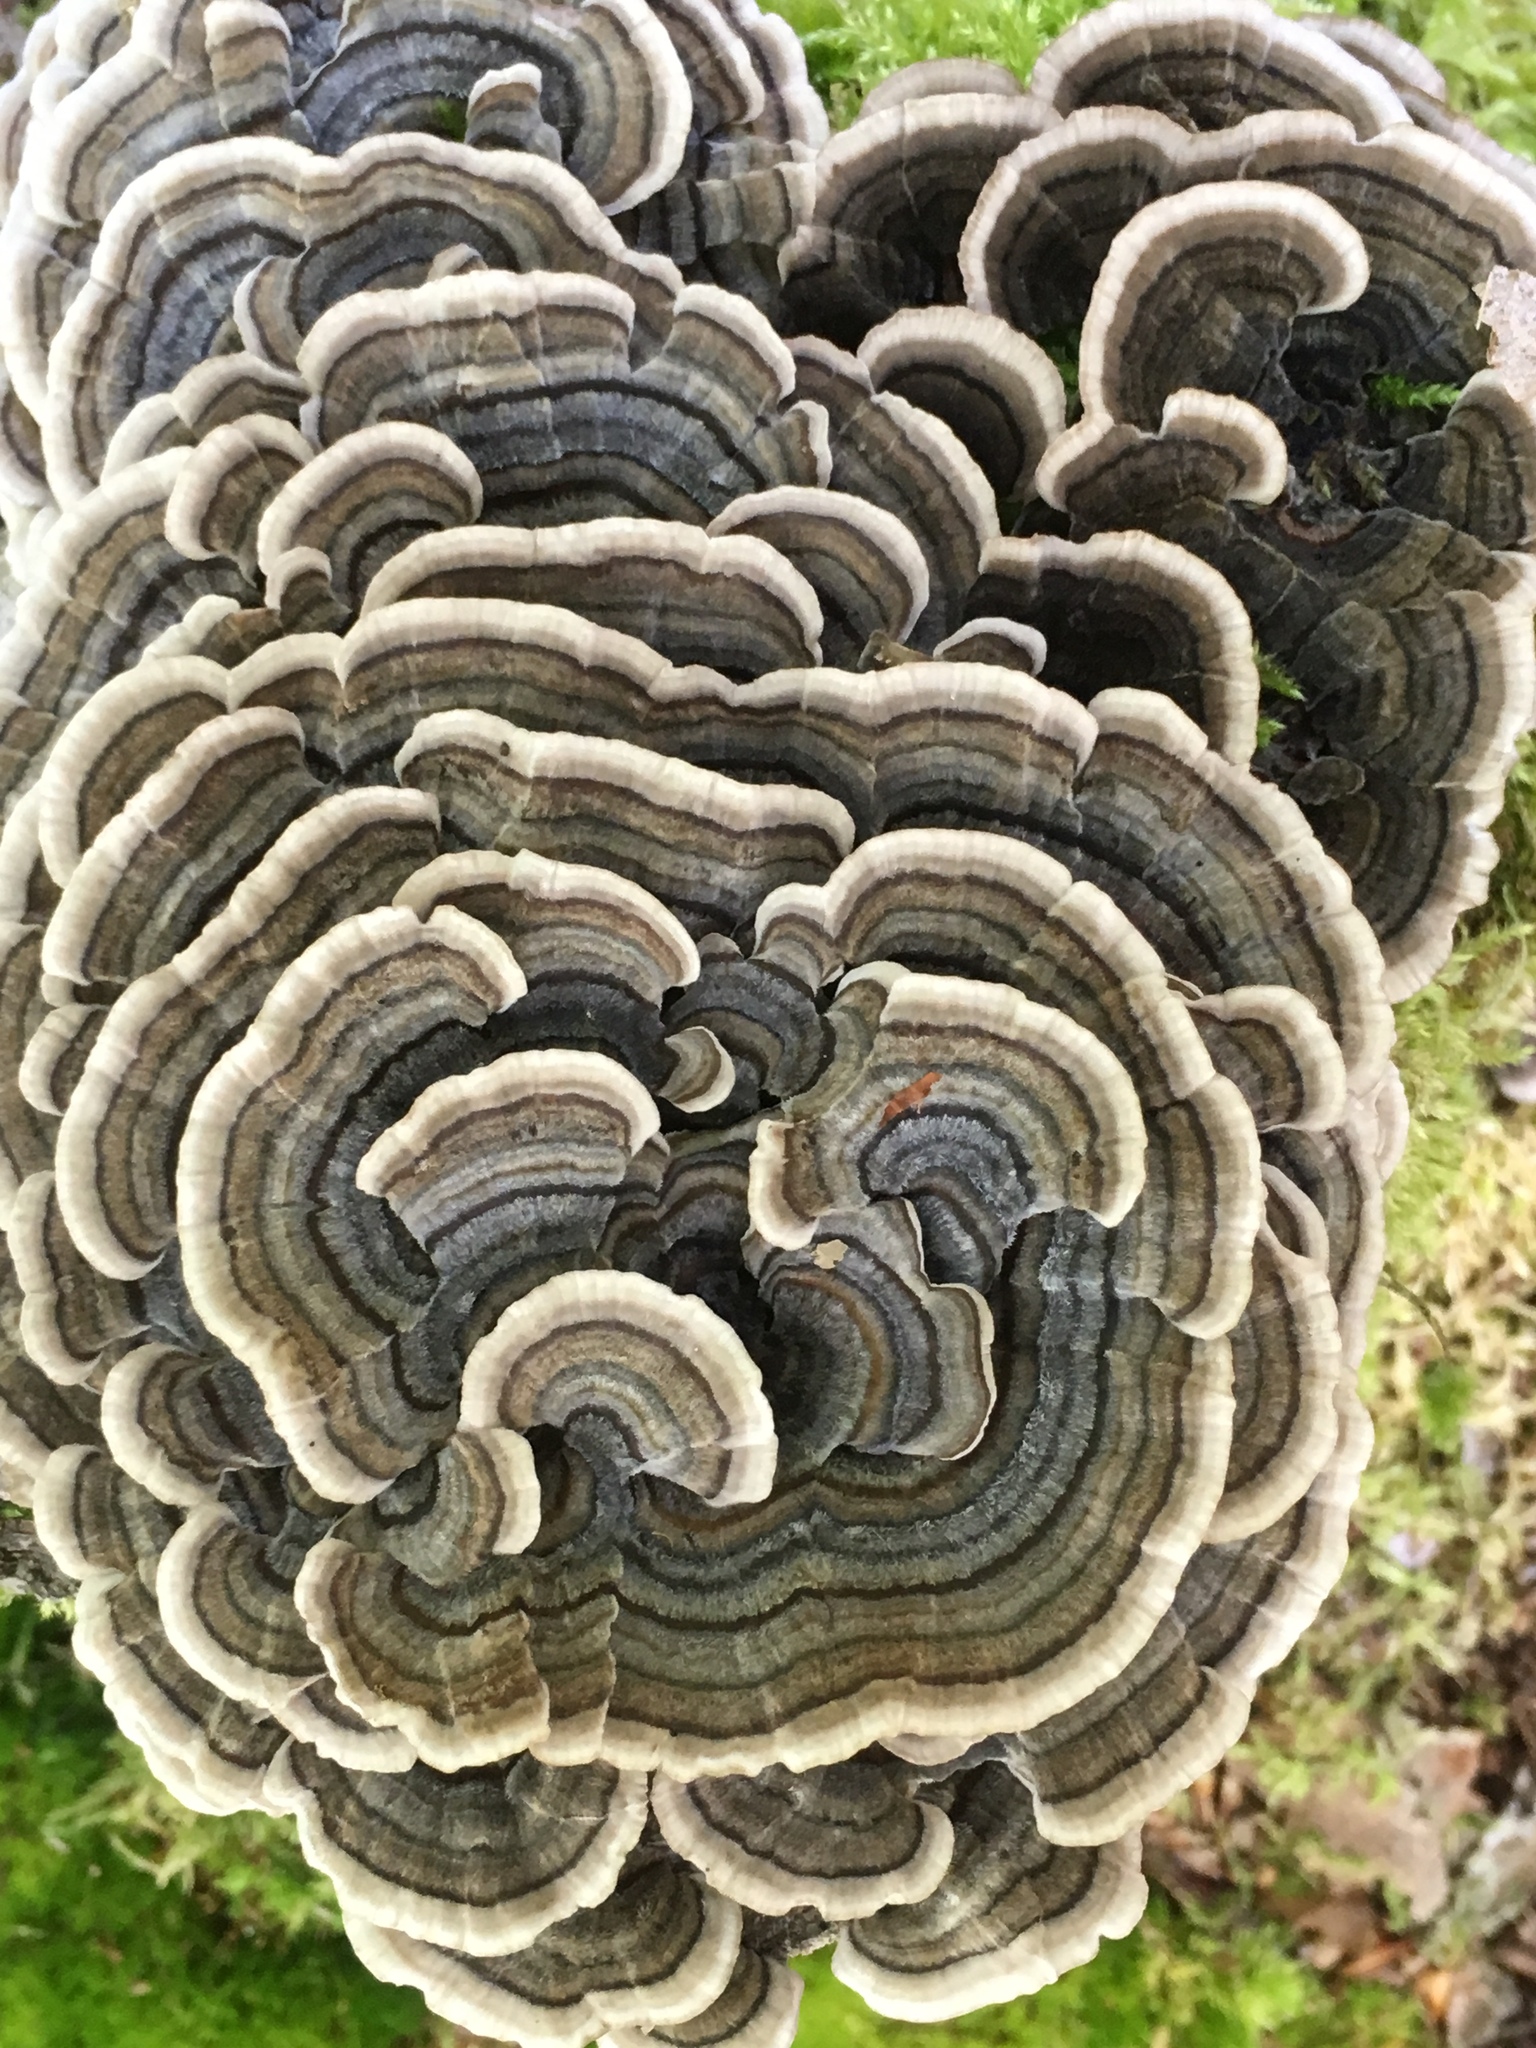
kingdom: Fungi
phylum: Basidiomycota
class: Agaricomycetes
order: Polyporales
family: Polyporaceae
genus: Trametes
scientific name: Trametes versicolor
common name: Turkeytail
